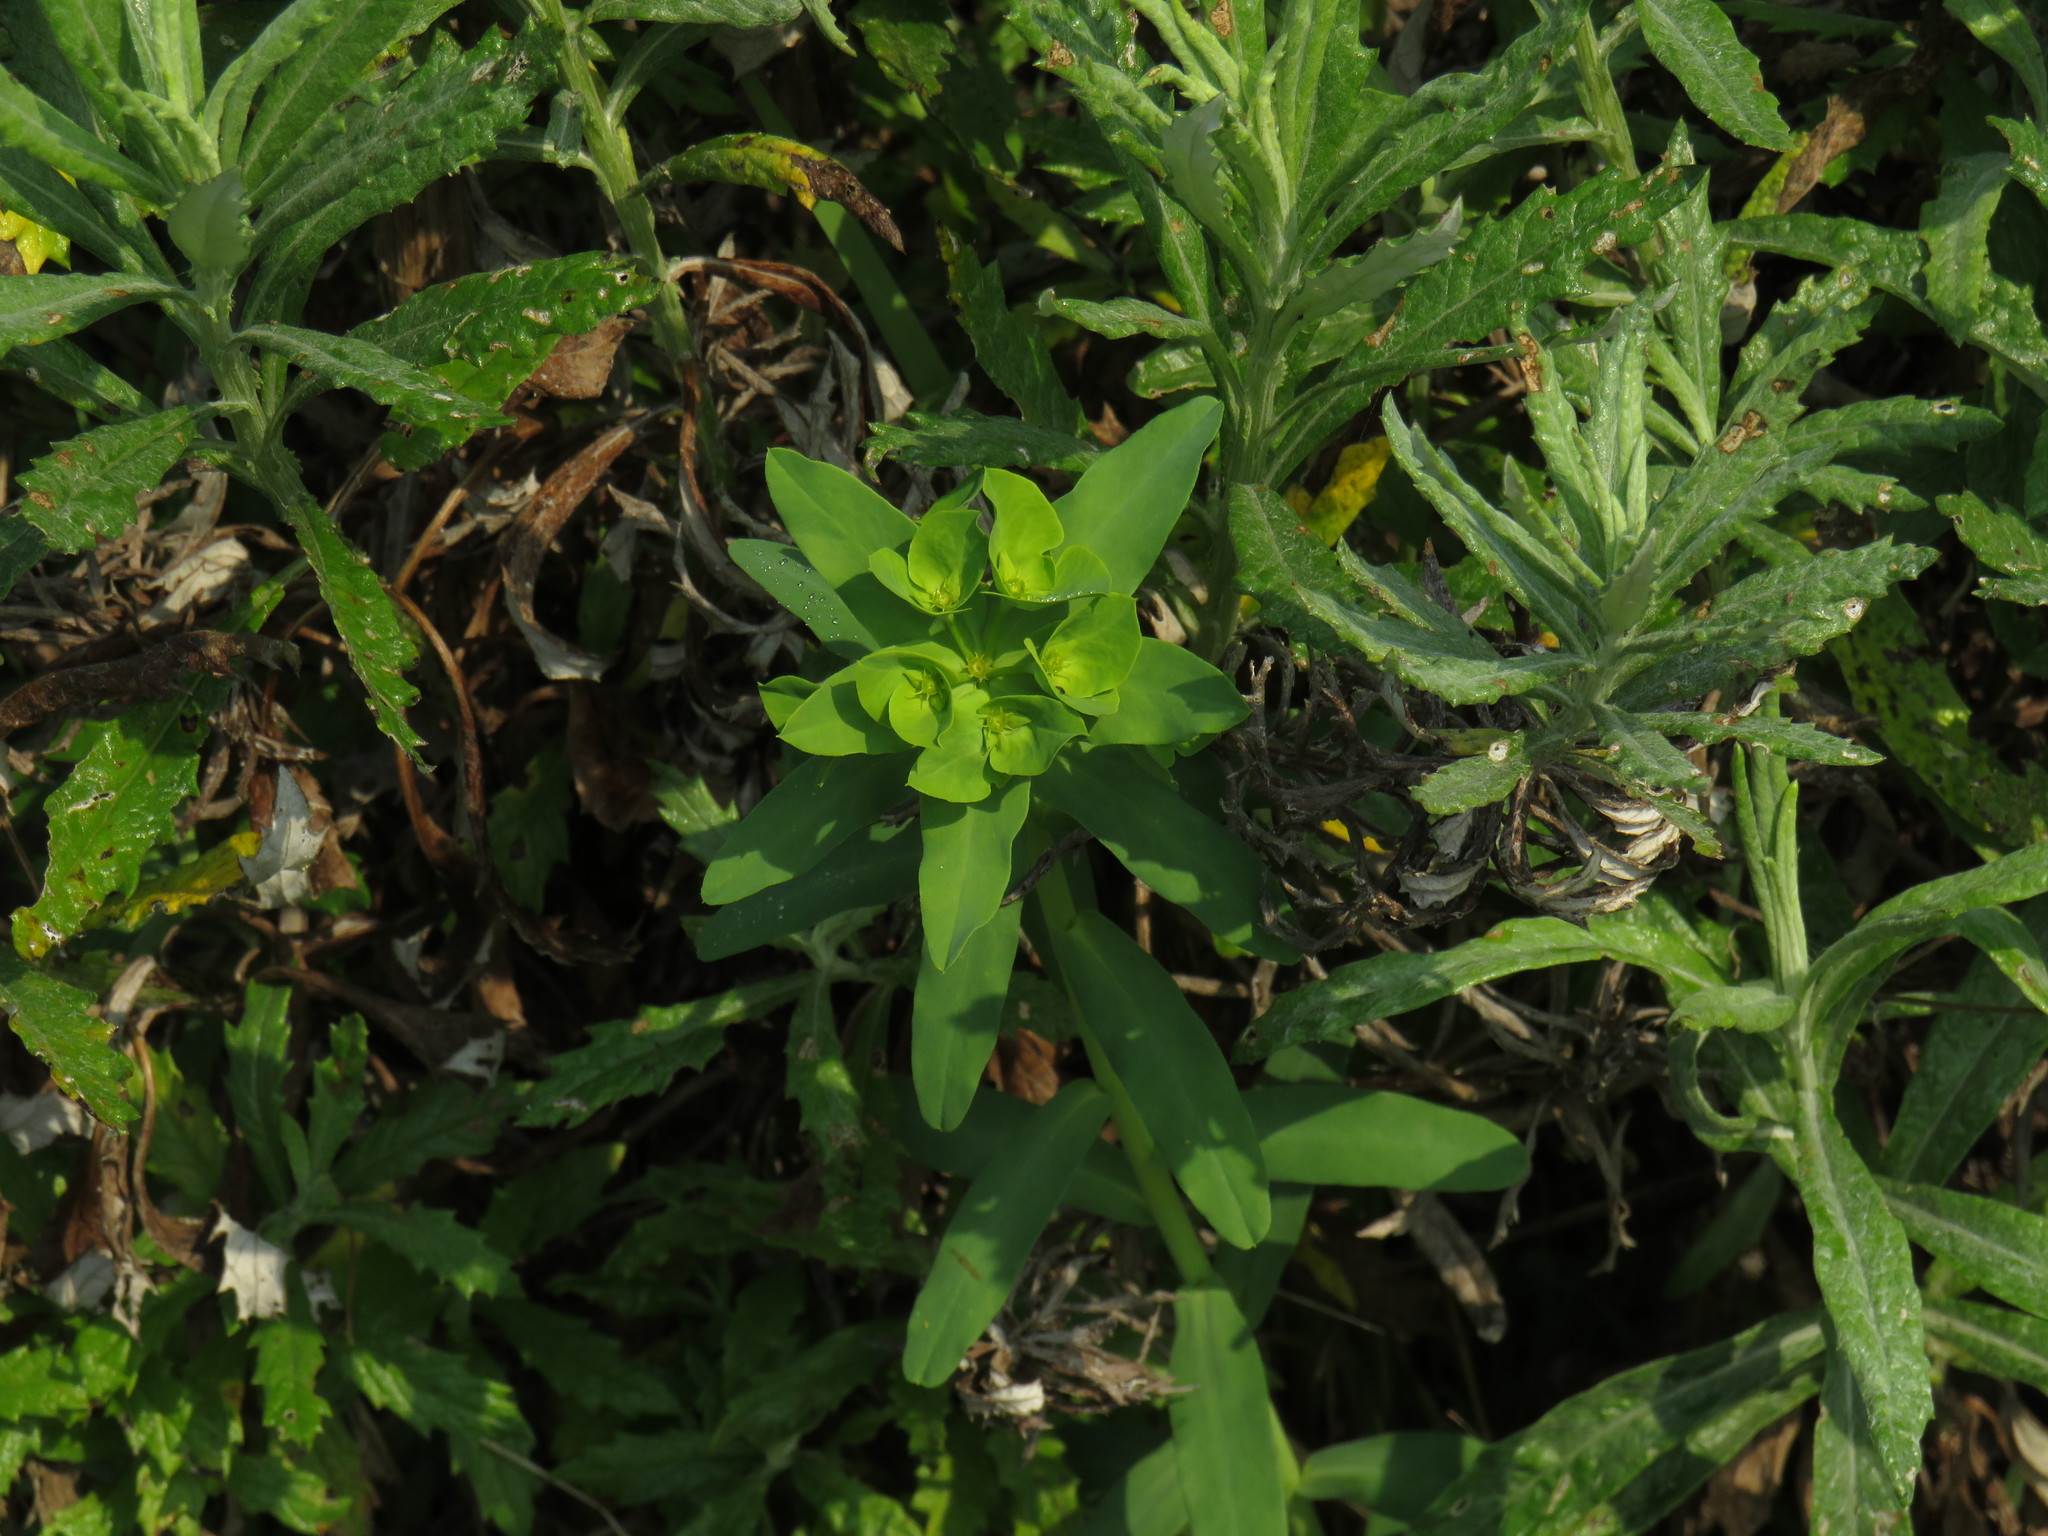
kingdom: Plantae
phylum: Tracheophyta
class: Magnoliopsida
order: Malpighiales
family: Euphorbiaceae
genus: Euphorbia
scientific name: Euphorbia terracina
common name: Geraldton carnation weed
